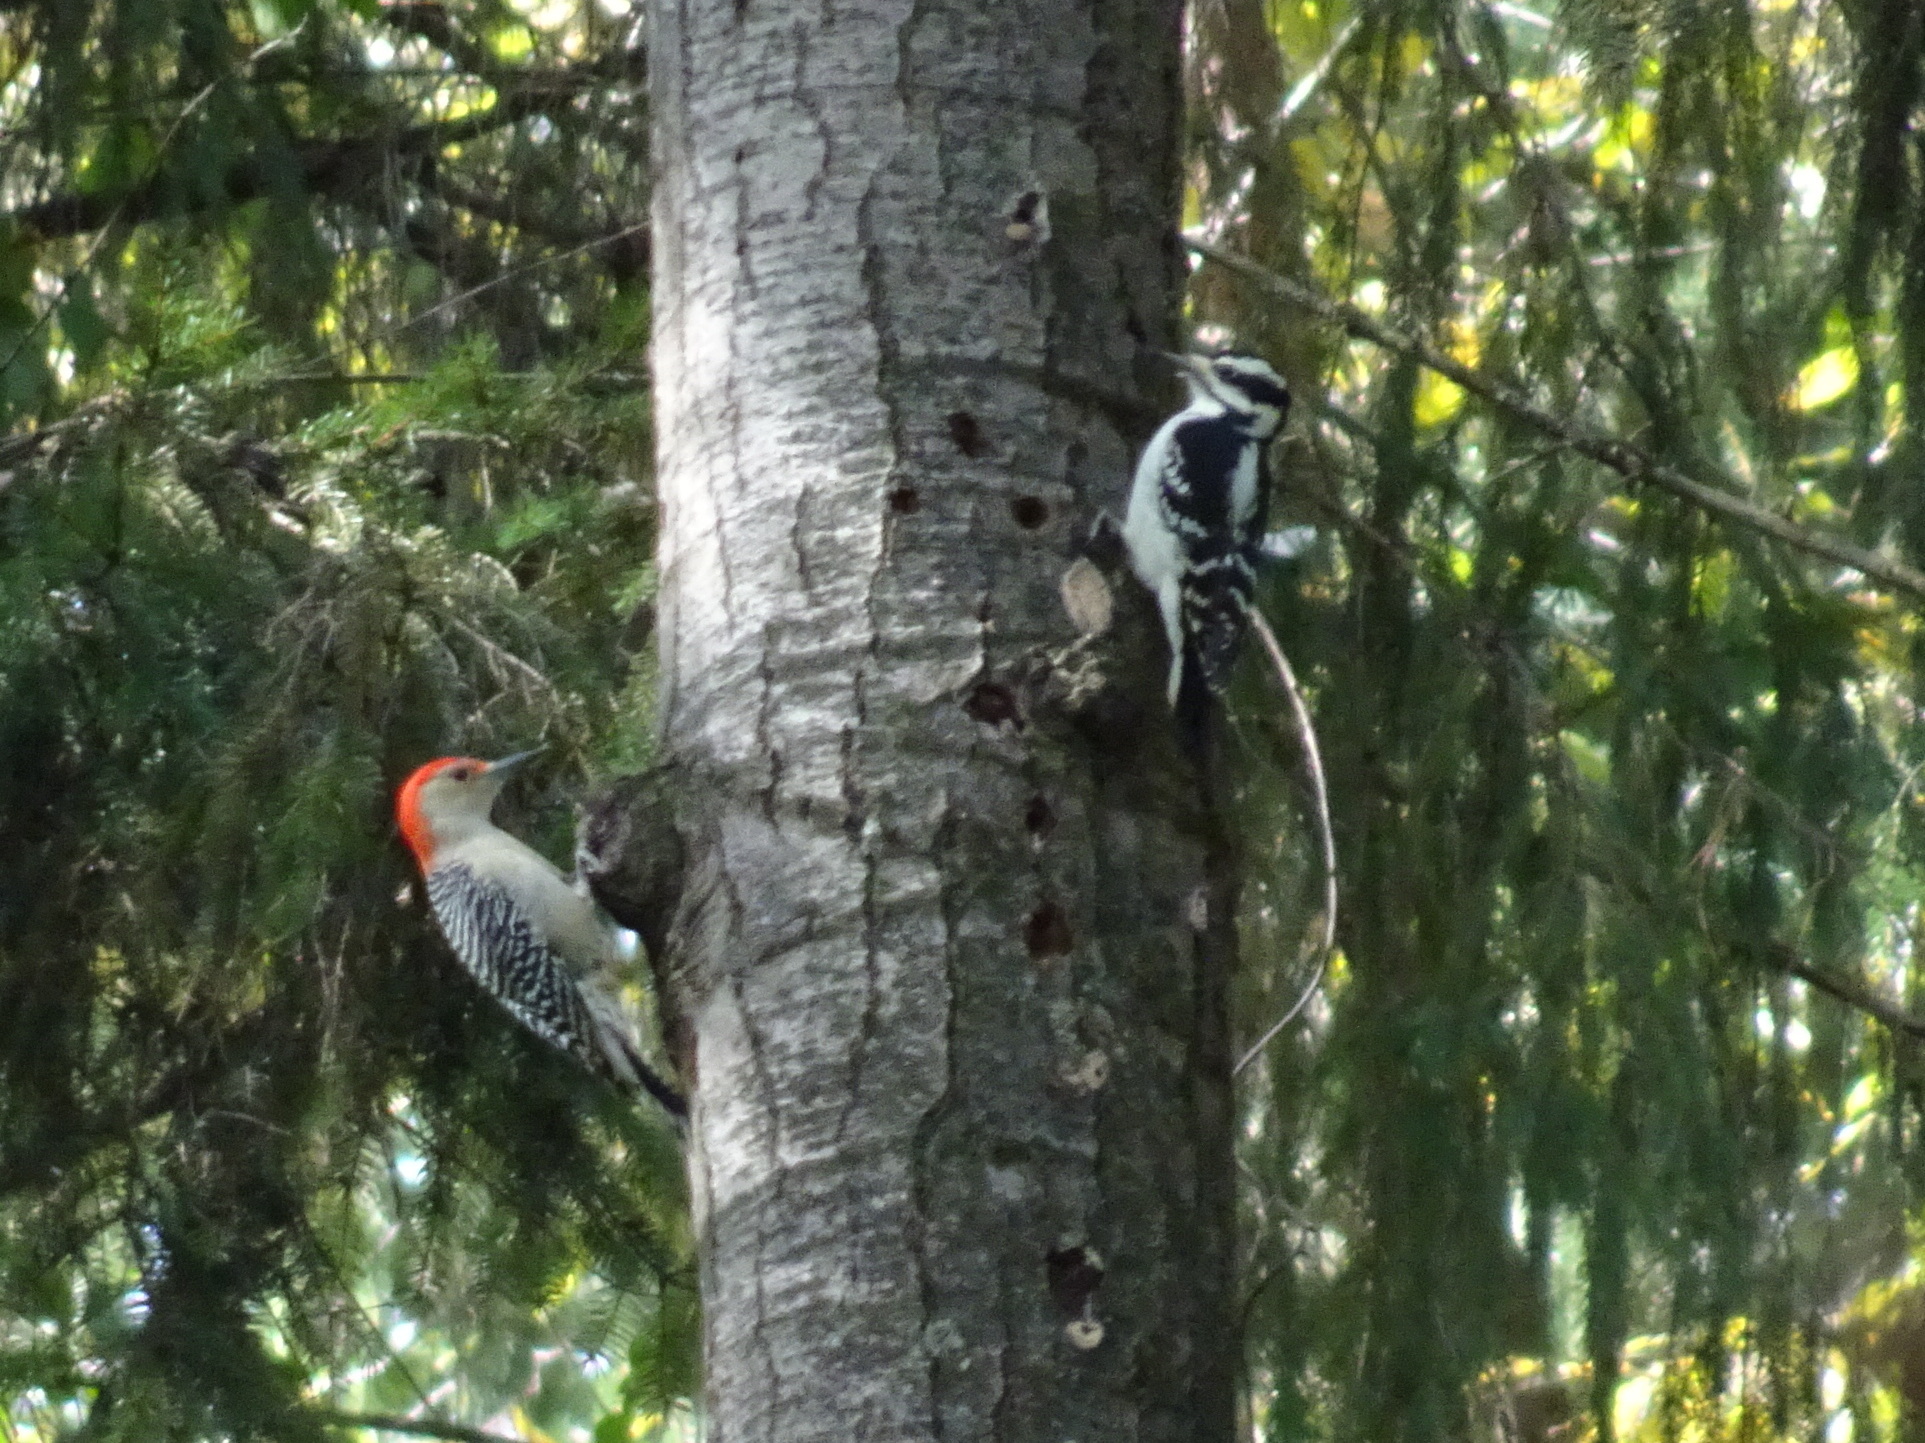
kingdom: Animalia
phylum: Chordata
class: Aves
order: Piciformes
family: Picidae
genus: Leuconotopicus
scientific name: Leuconotopicus villosus
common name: Hairy woodpecker
